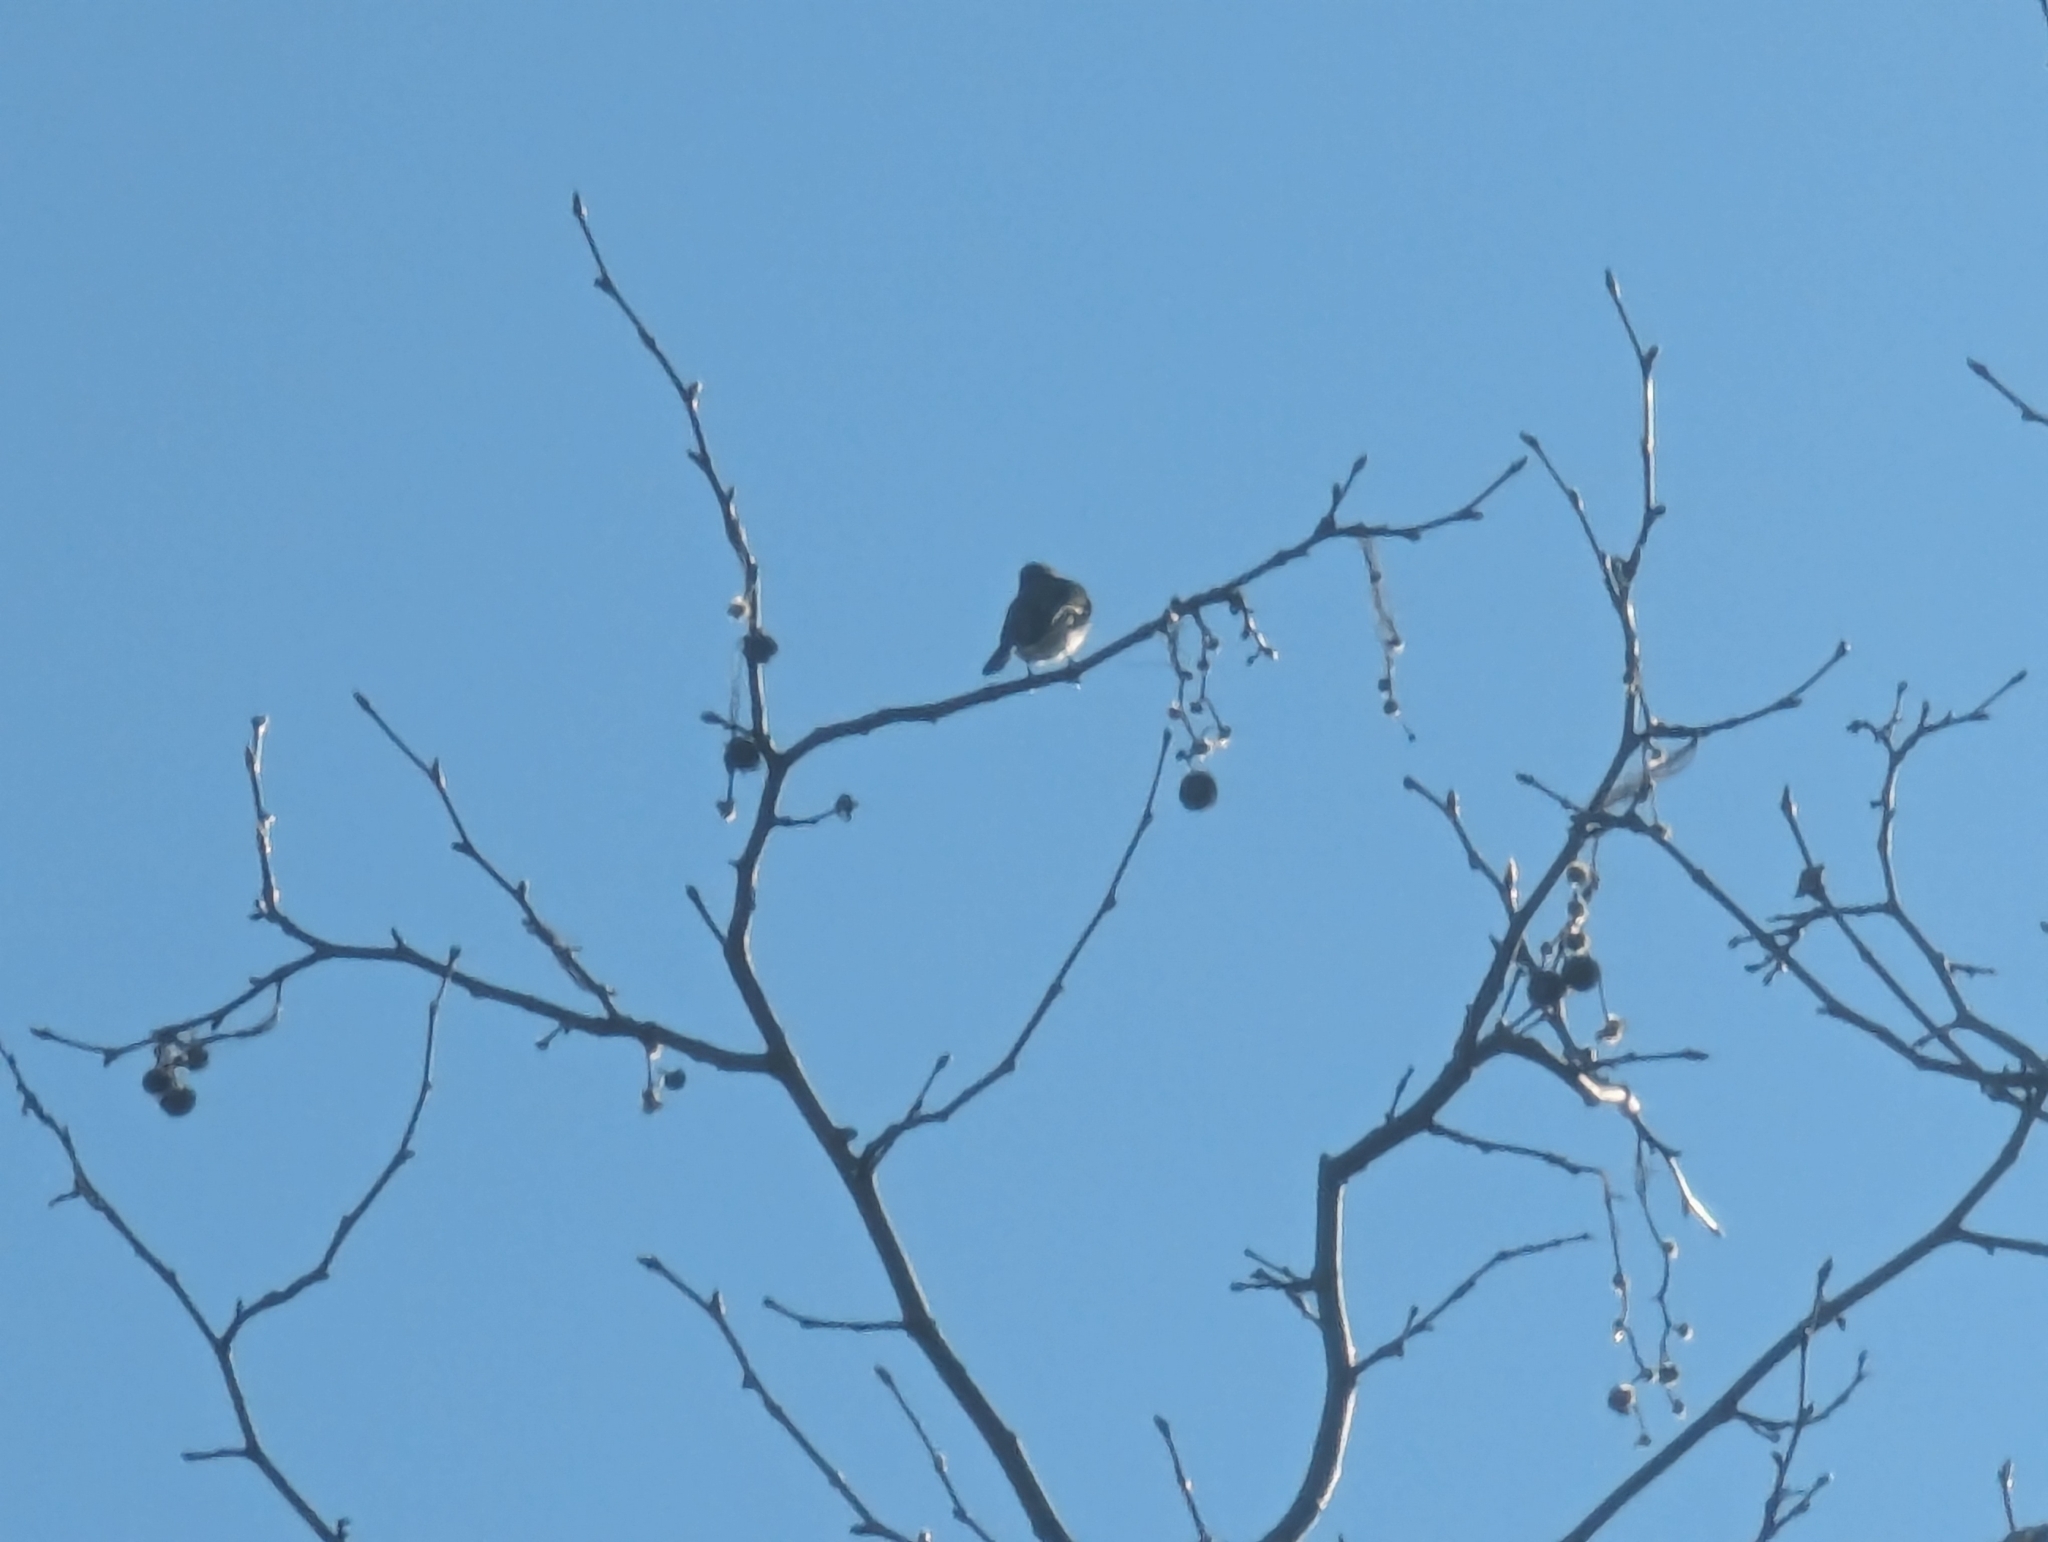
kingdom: Animalia
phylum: Chordata
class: Aves
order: Passeriformes
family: Tyrannidae
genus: Sayornis
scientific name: Sayornis nigricans
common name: Black phoebe
